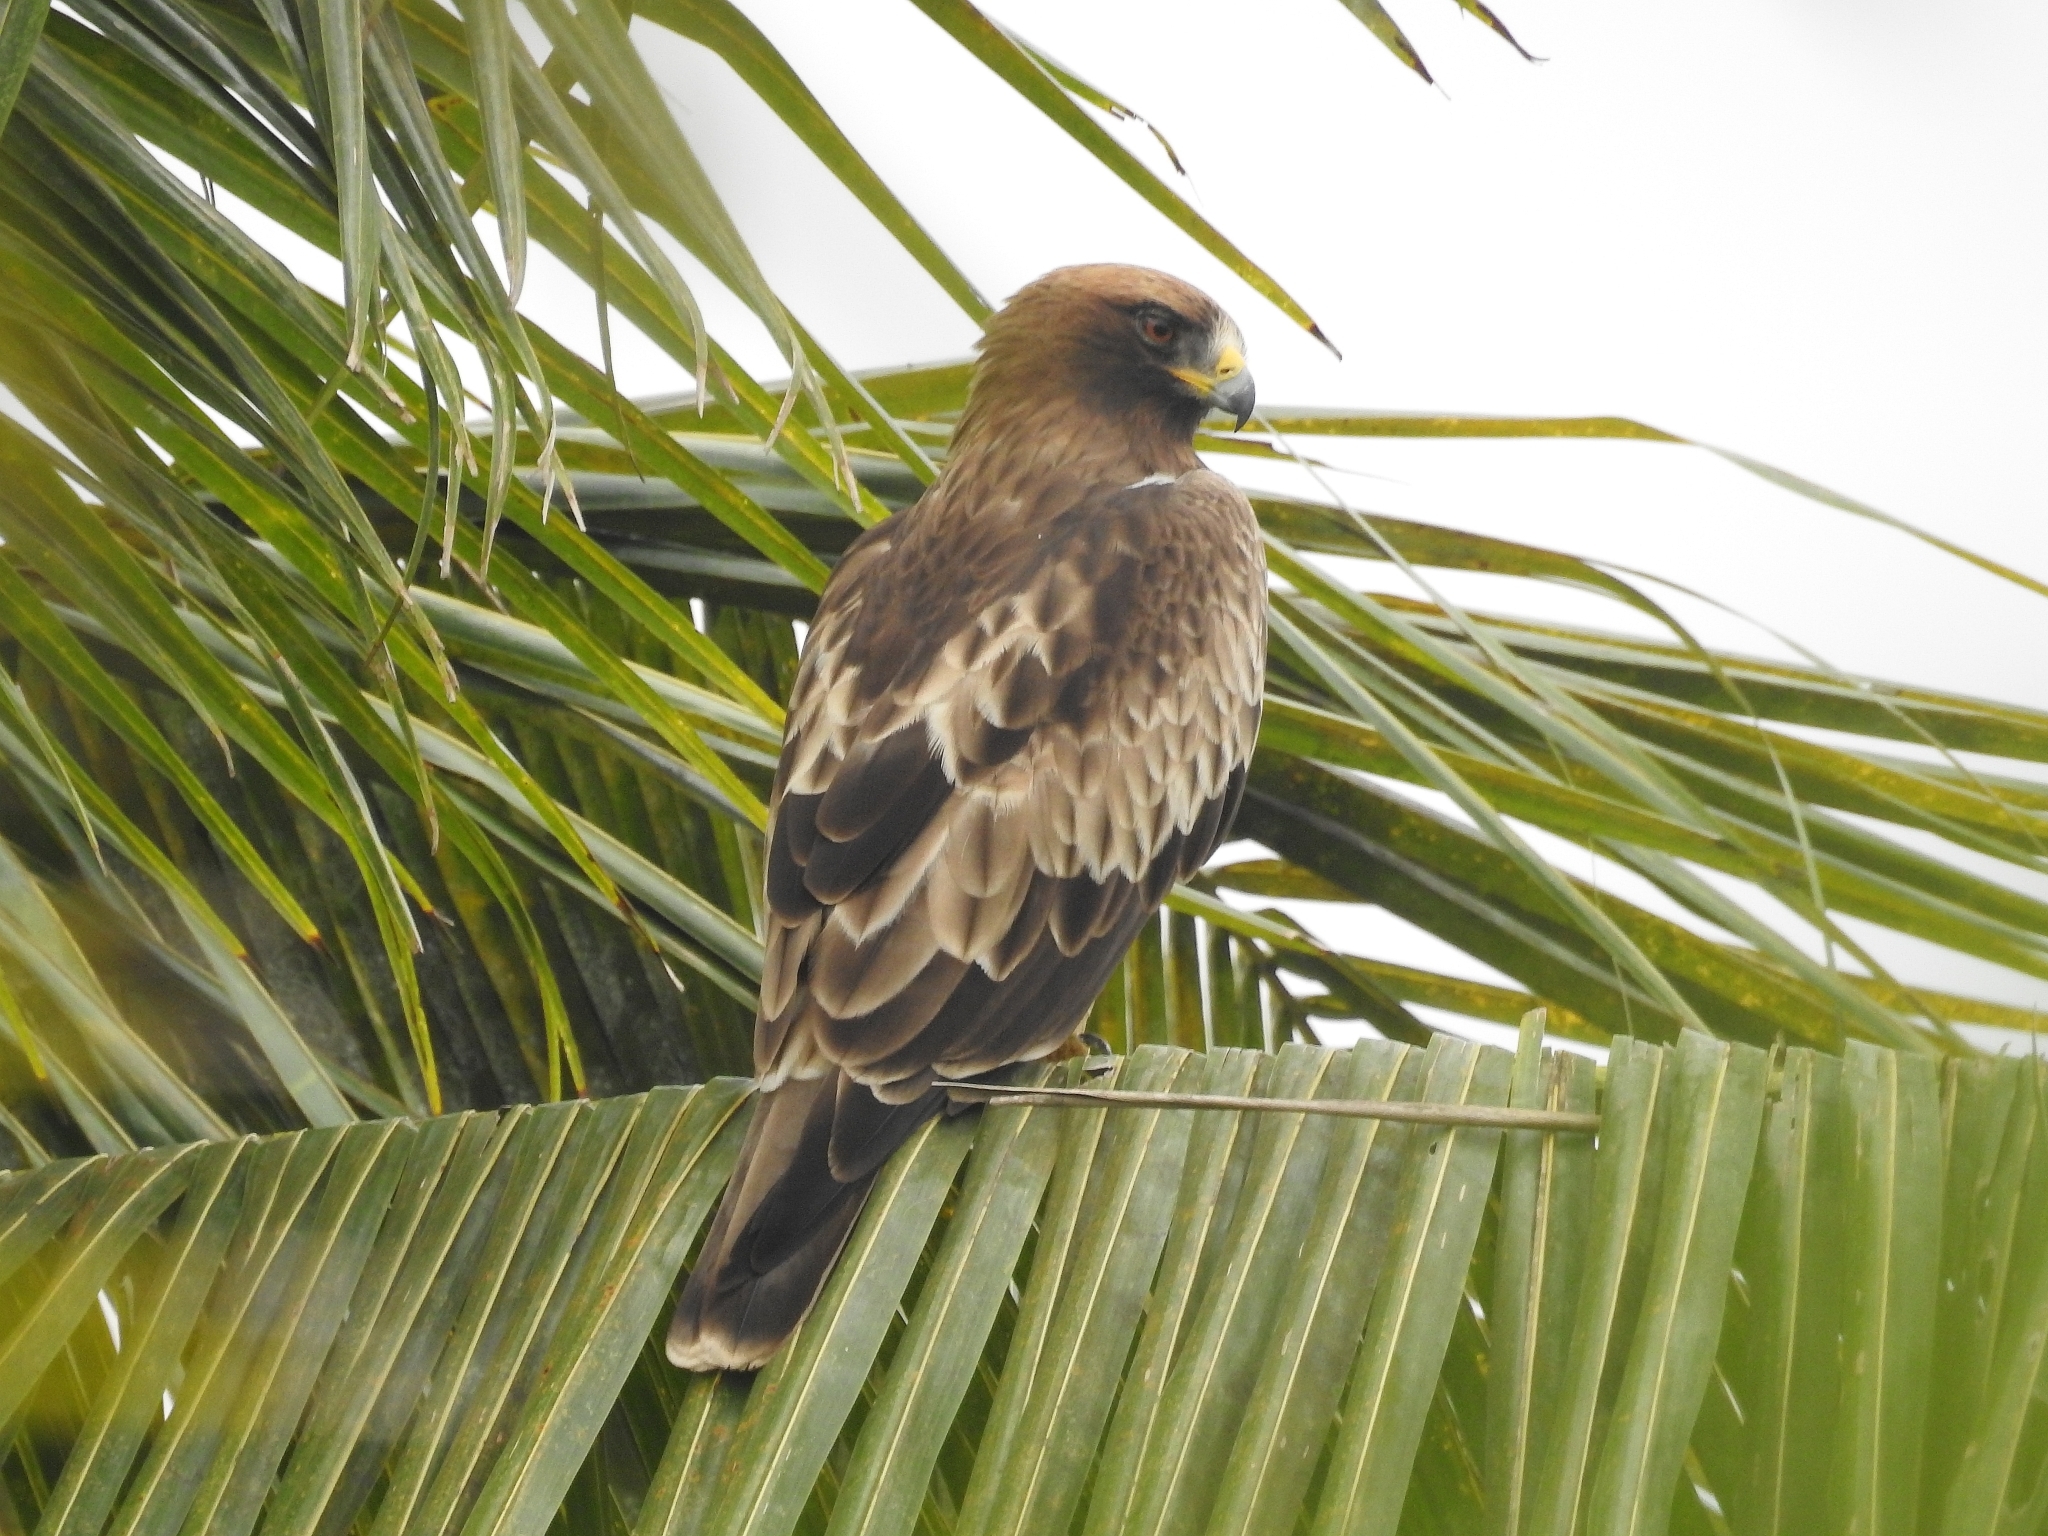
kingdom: Animalia
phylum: Chordata
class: Aves
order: Accipitriformes
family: Accipitridae
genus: Hieraaetus
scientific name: Hieraaetus pennatus
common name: Booted eagle
